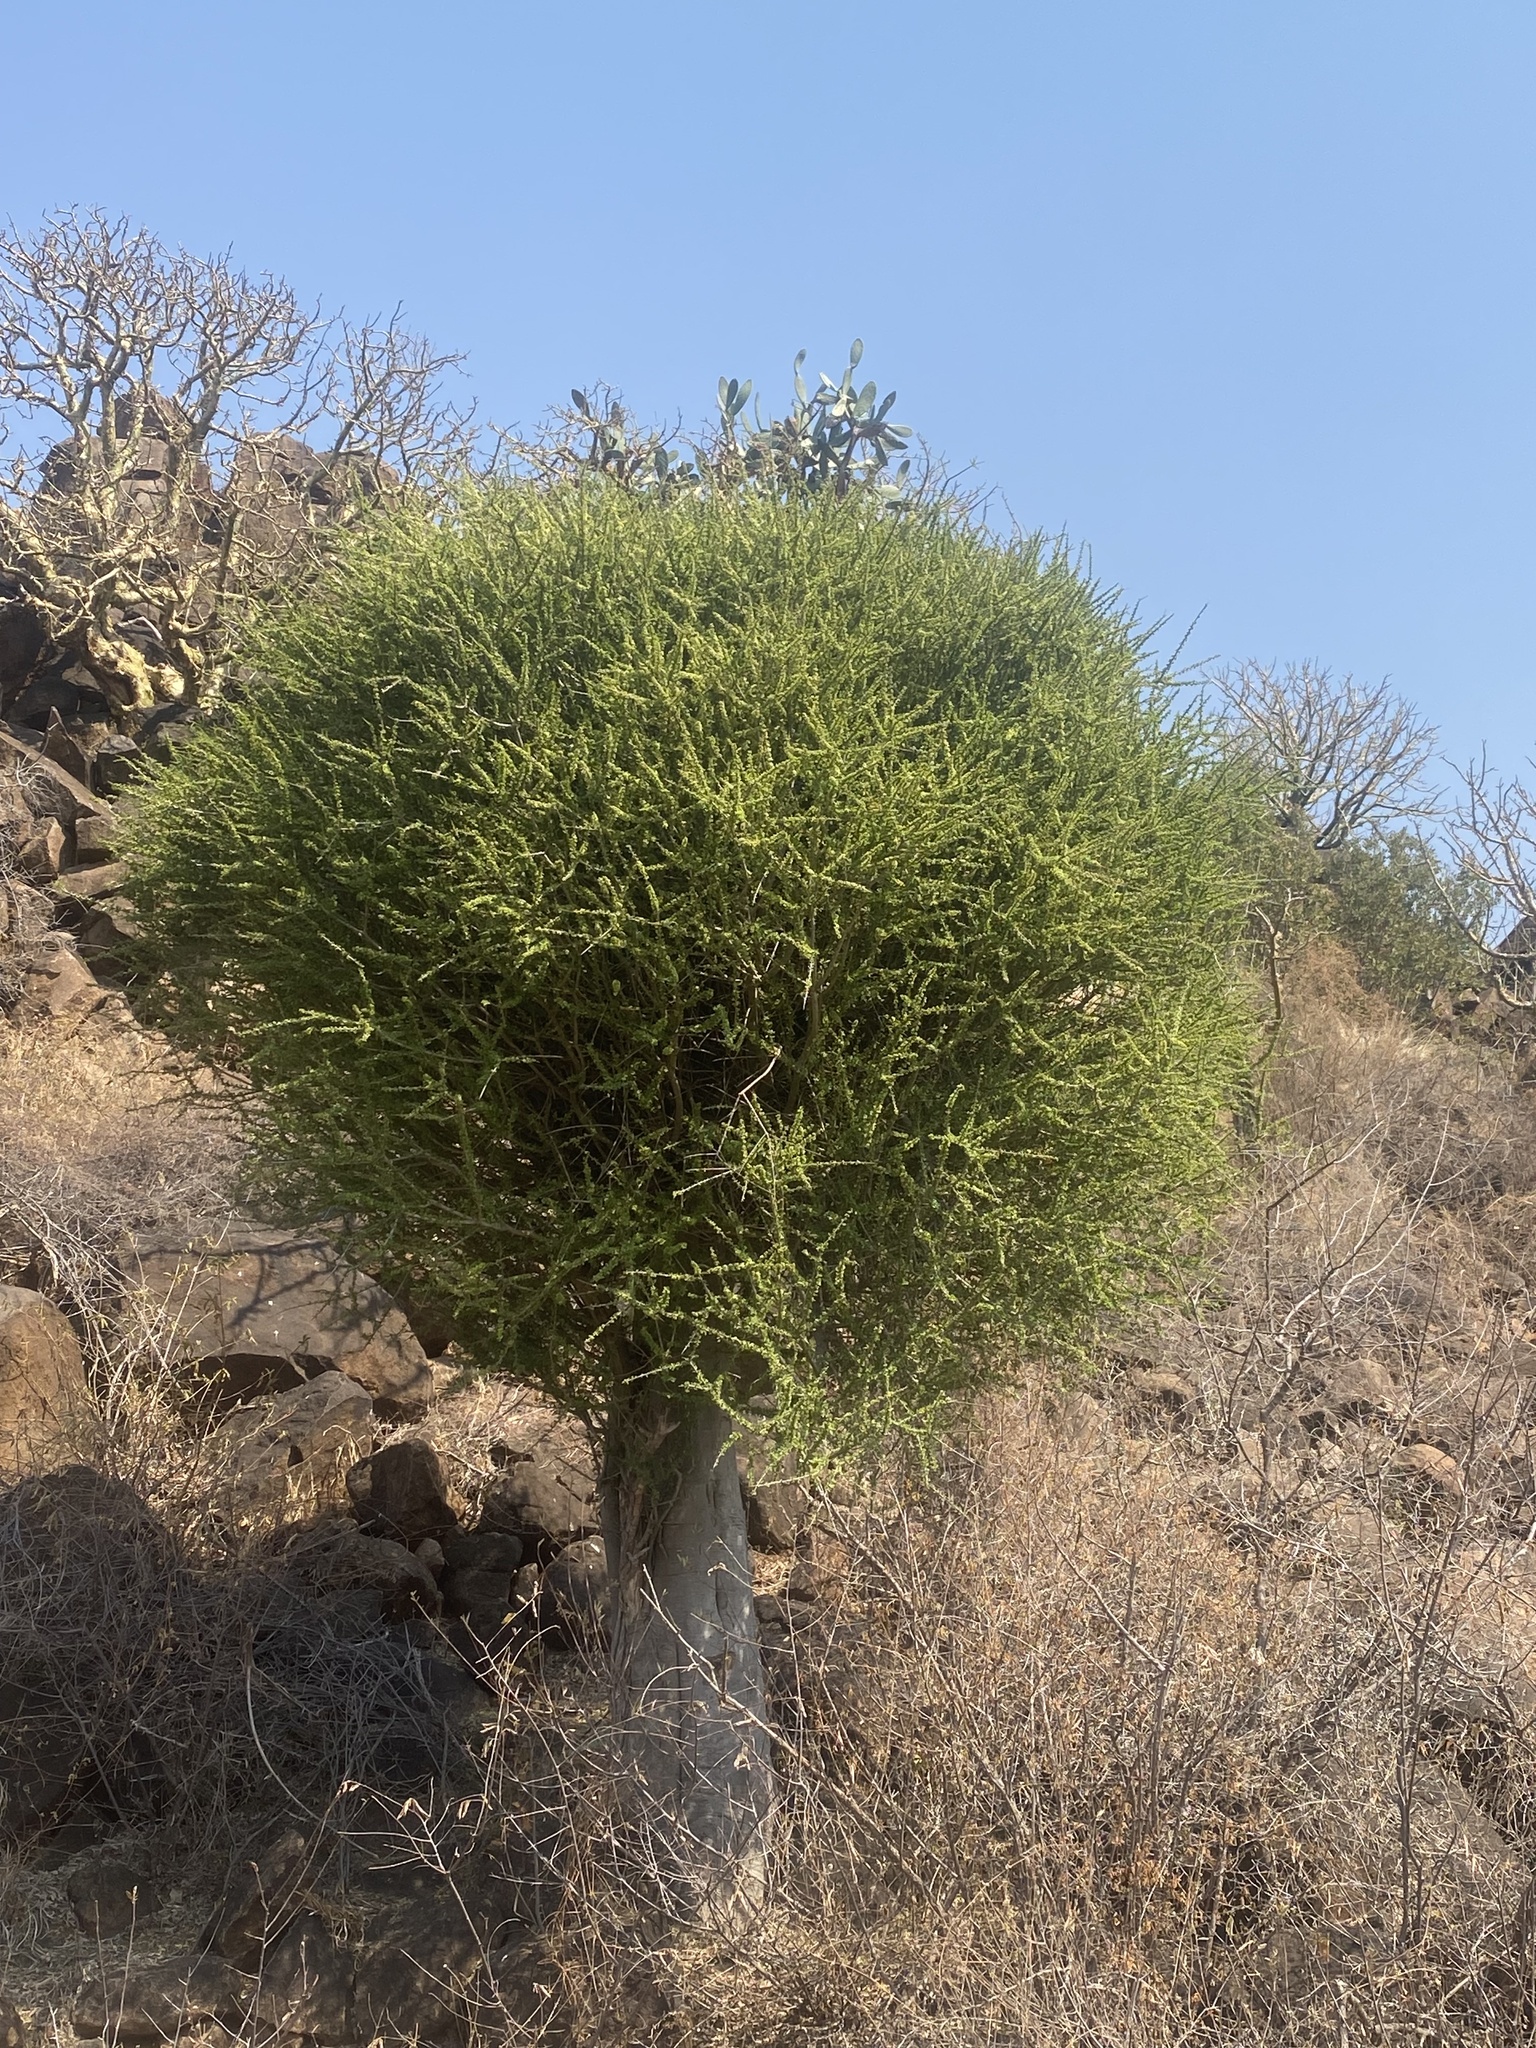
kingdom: Plantae
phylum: Tracheophyta
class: Magnoliopsida
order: Brassicales
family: Capparaceae
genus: Boscia
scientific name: Boscia foetida
